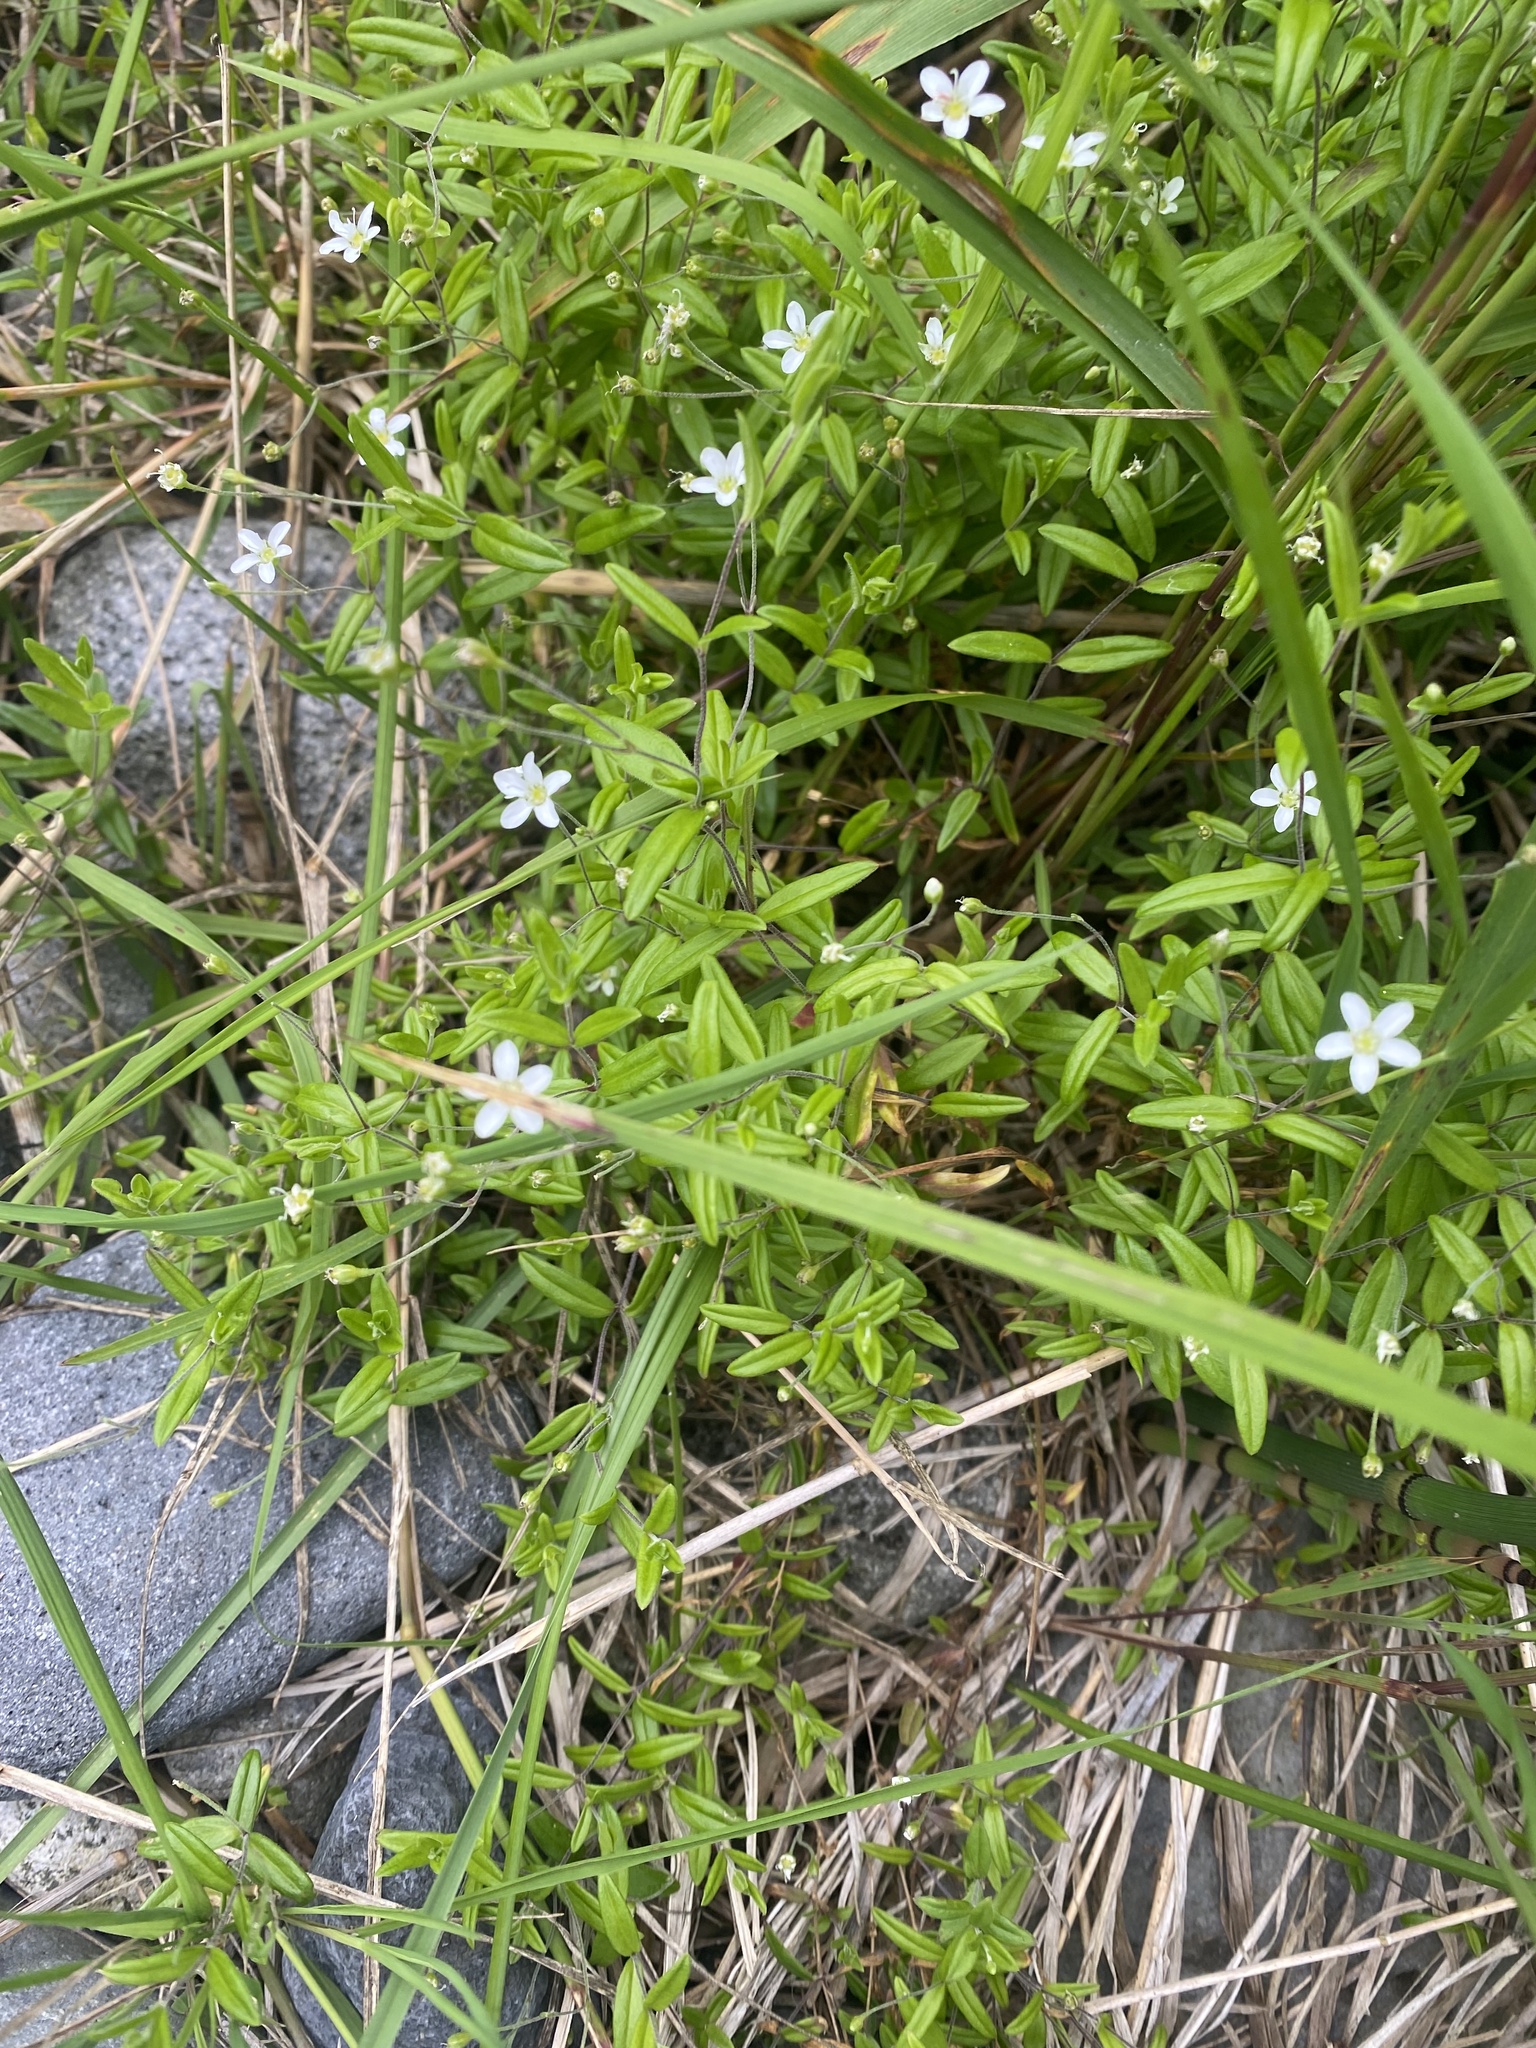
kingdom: Plantae
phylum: Tracheophyta
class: Magnoliopsida
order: Caryophyllales
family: Caryophyllaceae
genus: Moehringia
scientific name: Moehringia lateriflora
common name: Blunt-leaved sandwort
